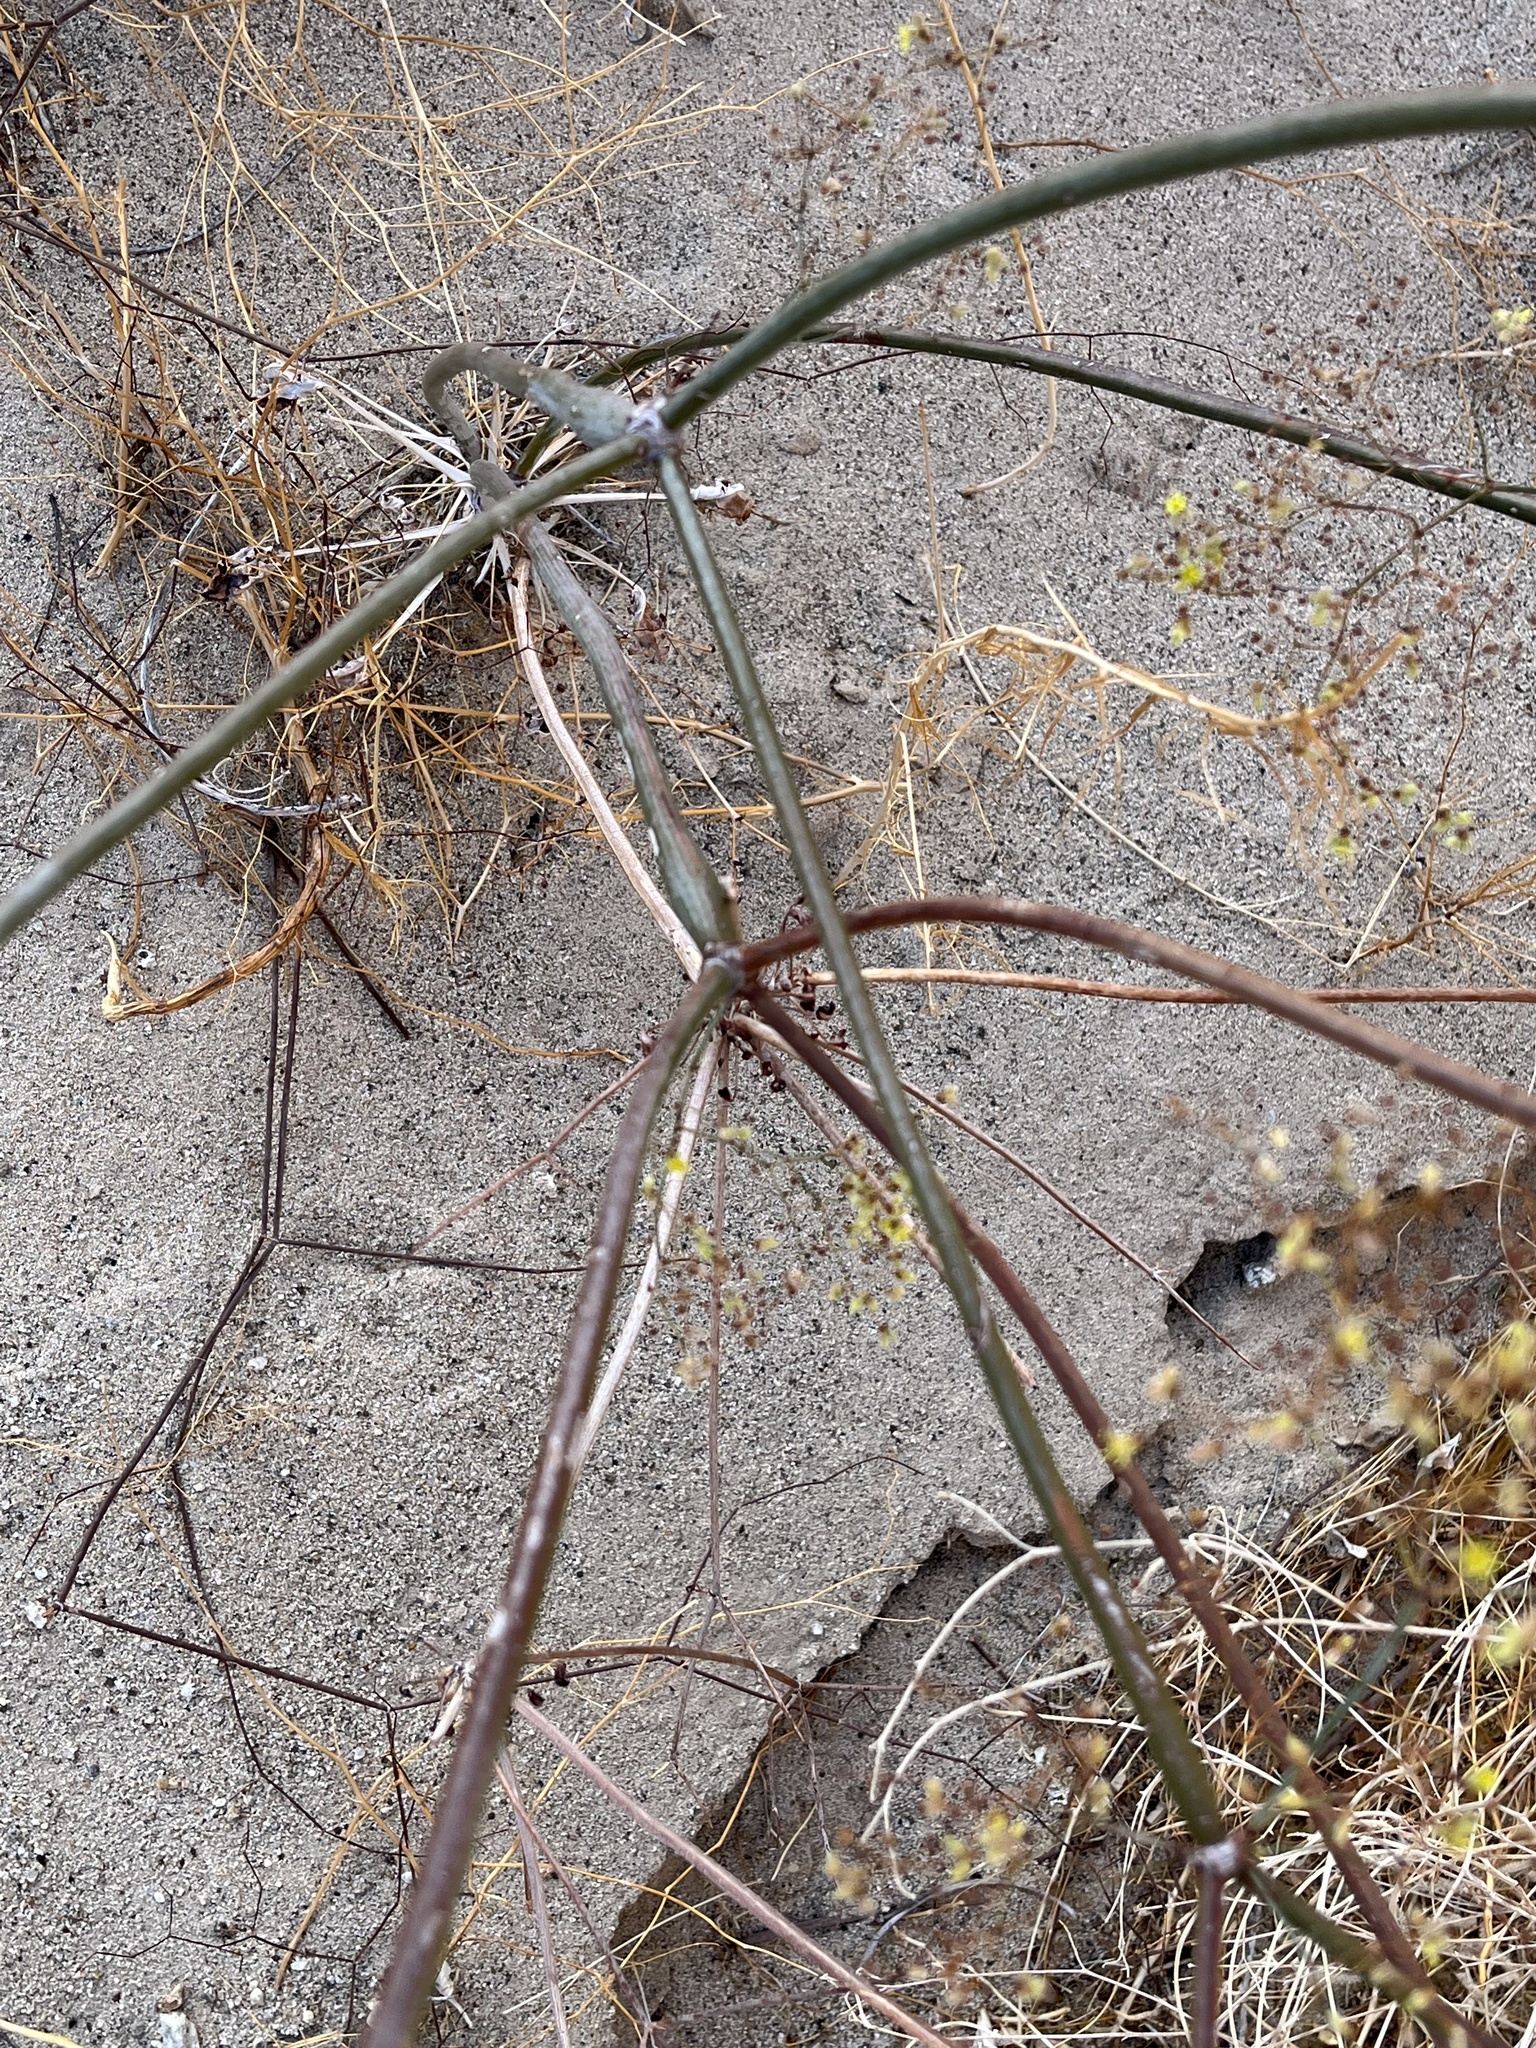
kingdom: Plantae
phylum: Tracheophyta
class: Magnoliopsida
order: Caryophyllales
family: Polygonaceae
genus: Eriogonum
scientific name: Eriogonum inflatum
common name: Desert trumpet
